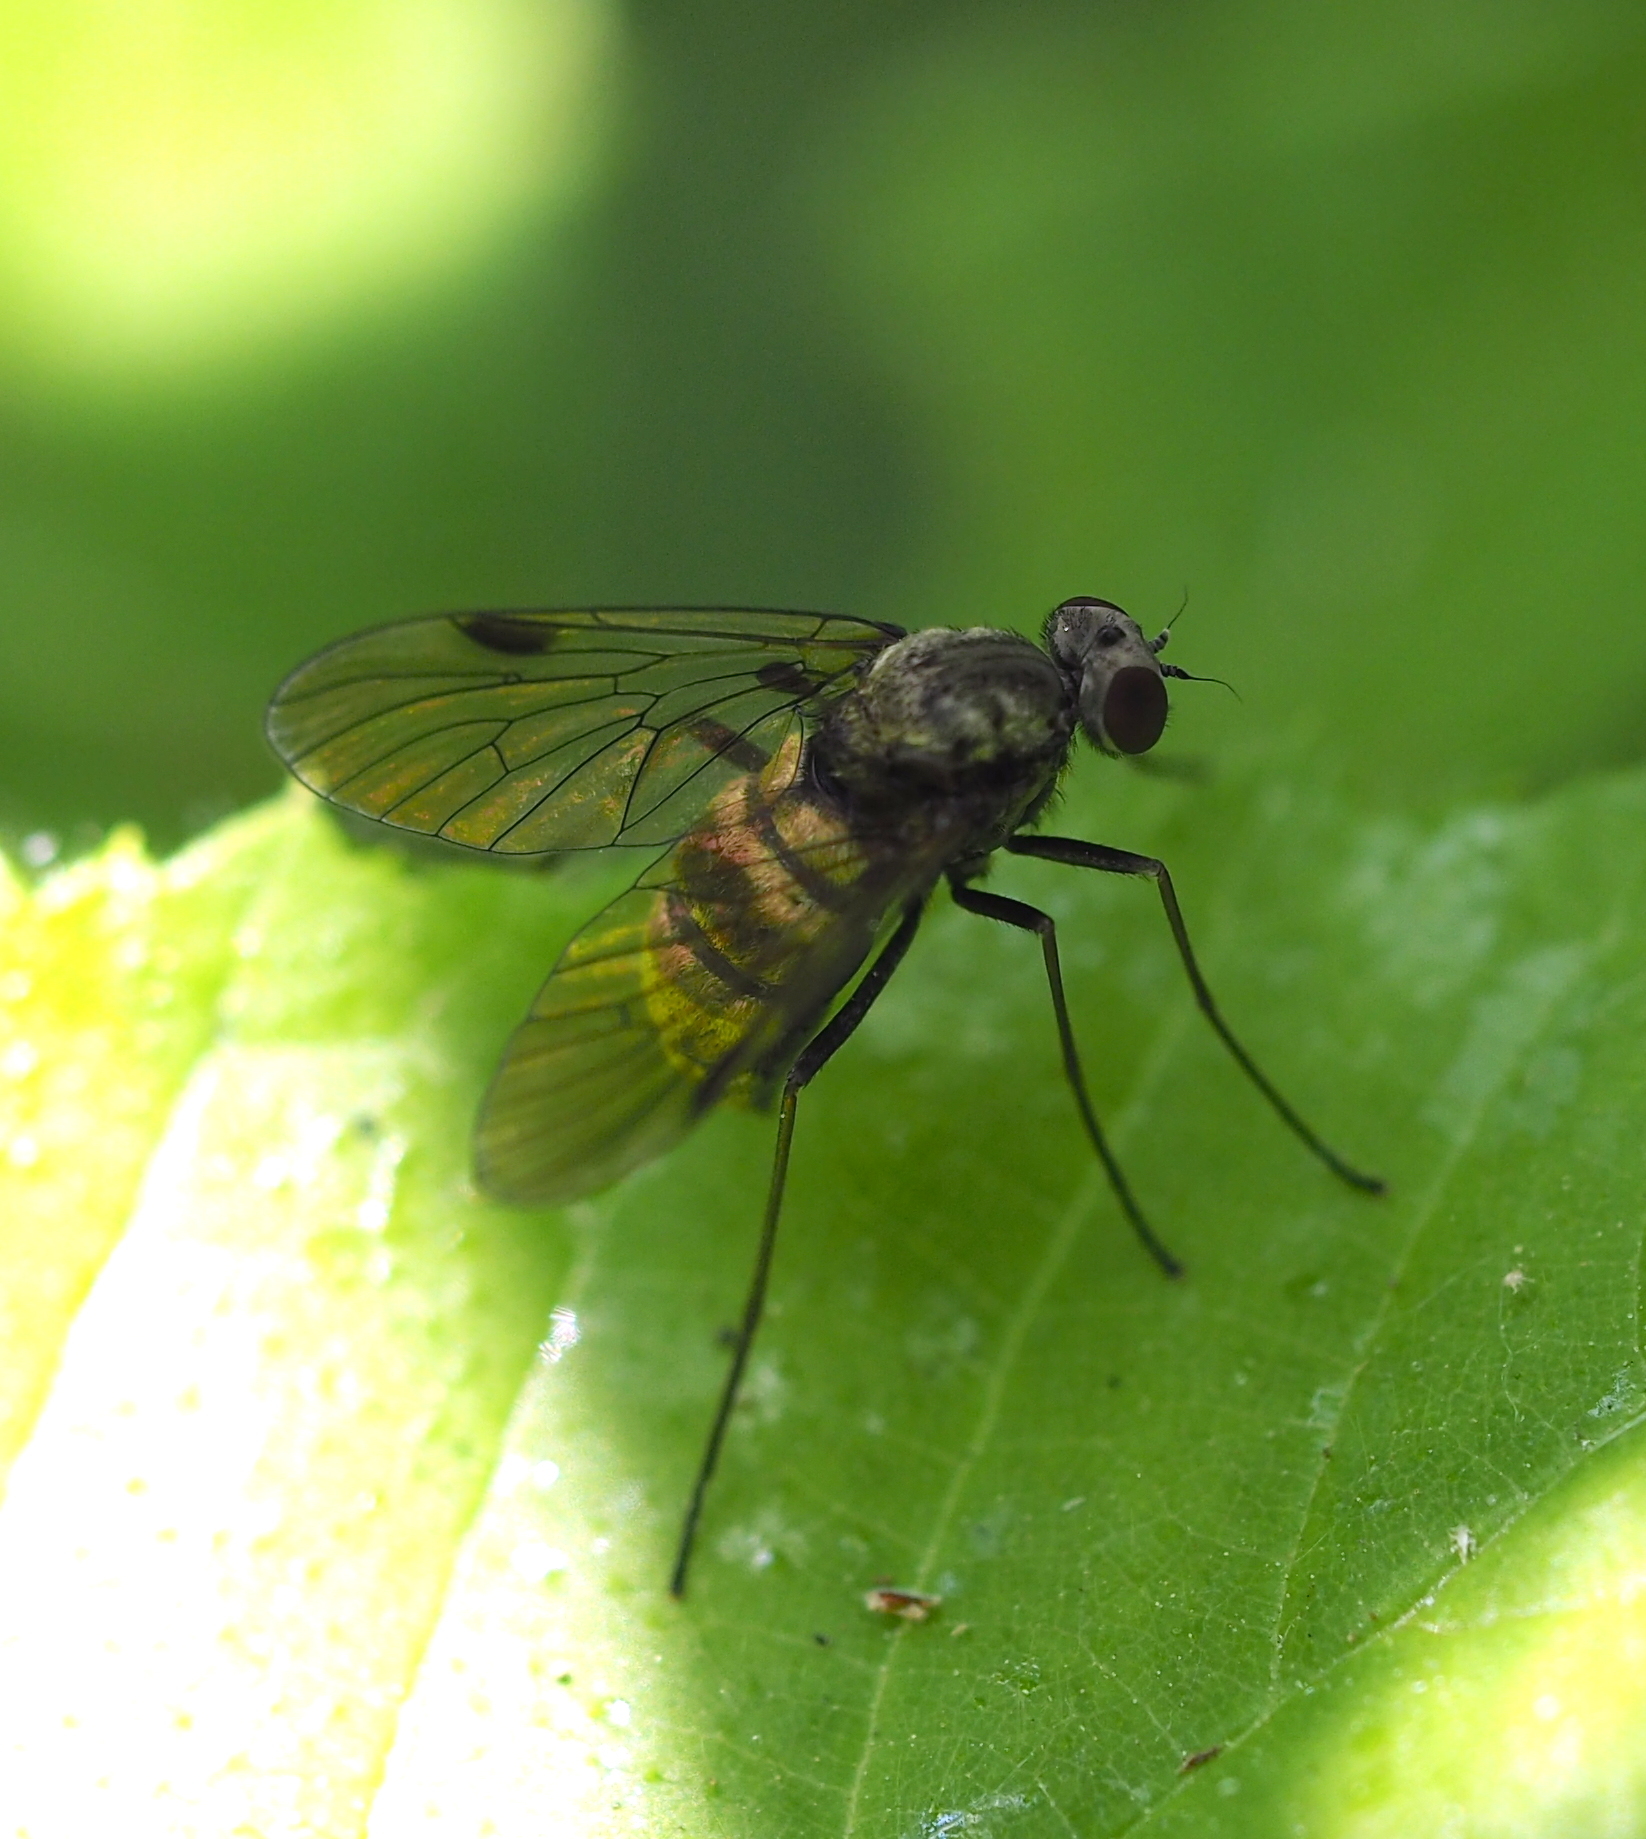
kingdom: Animalia
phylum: Arthropoda
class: Insecta
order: Diptera
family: Rhagionidae
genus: Chrysopilus
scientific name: Chrysopilus cristatus
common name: Black snipefly
